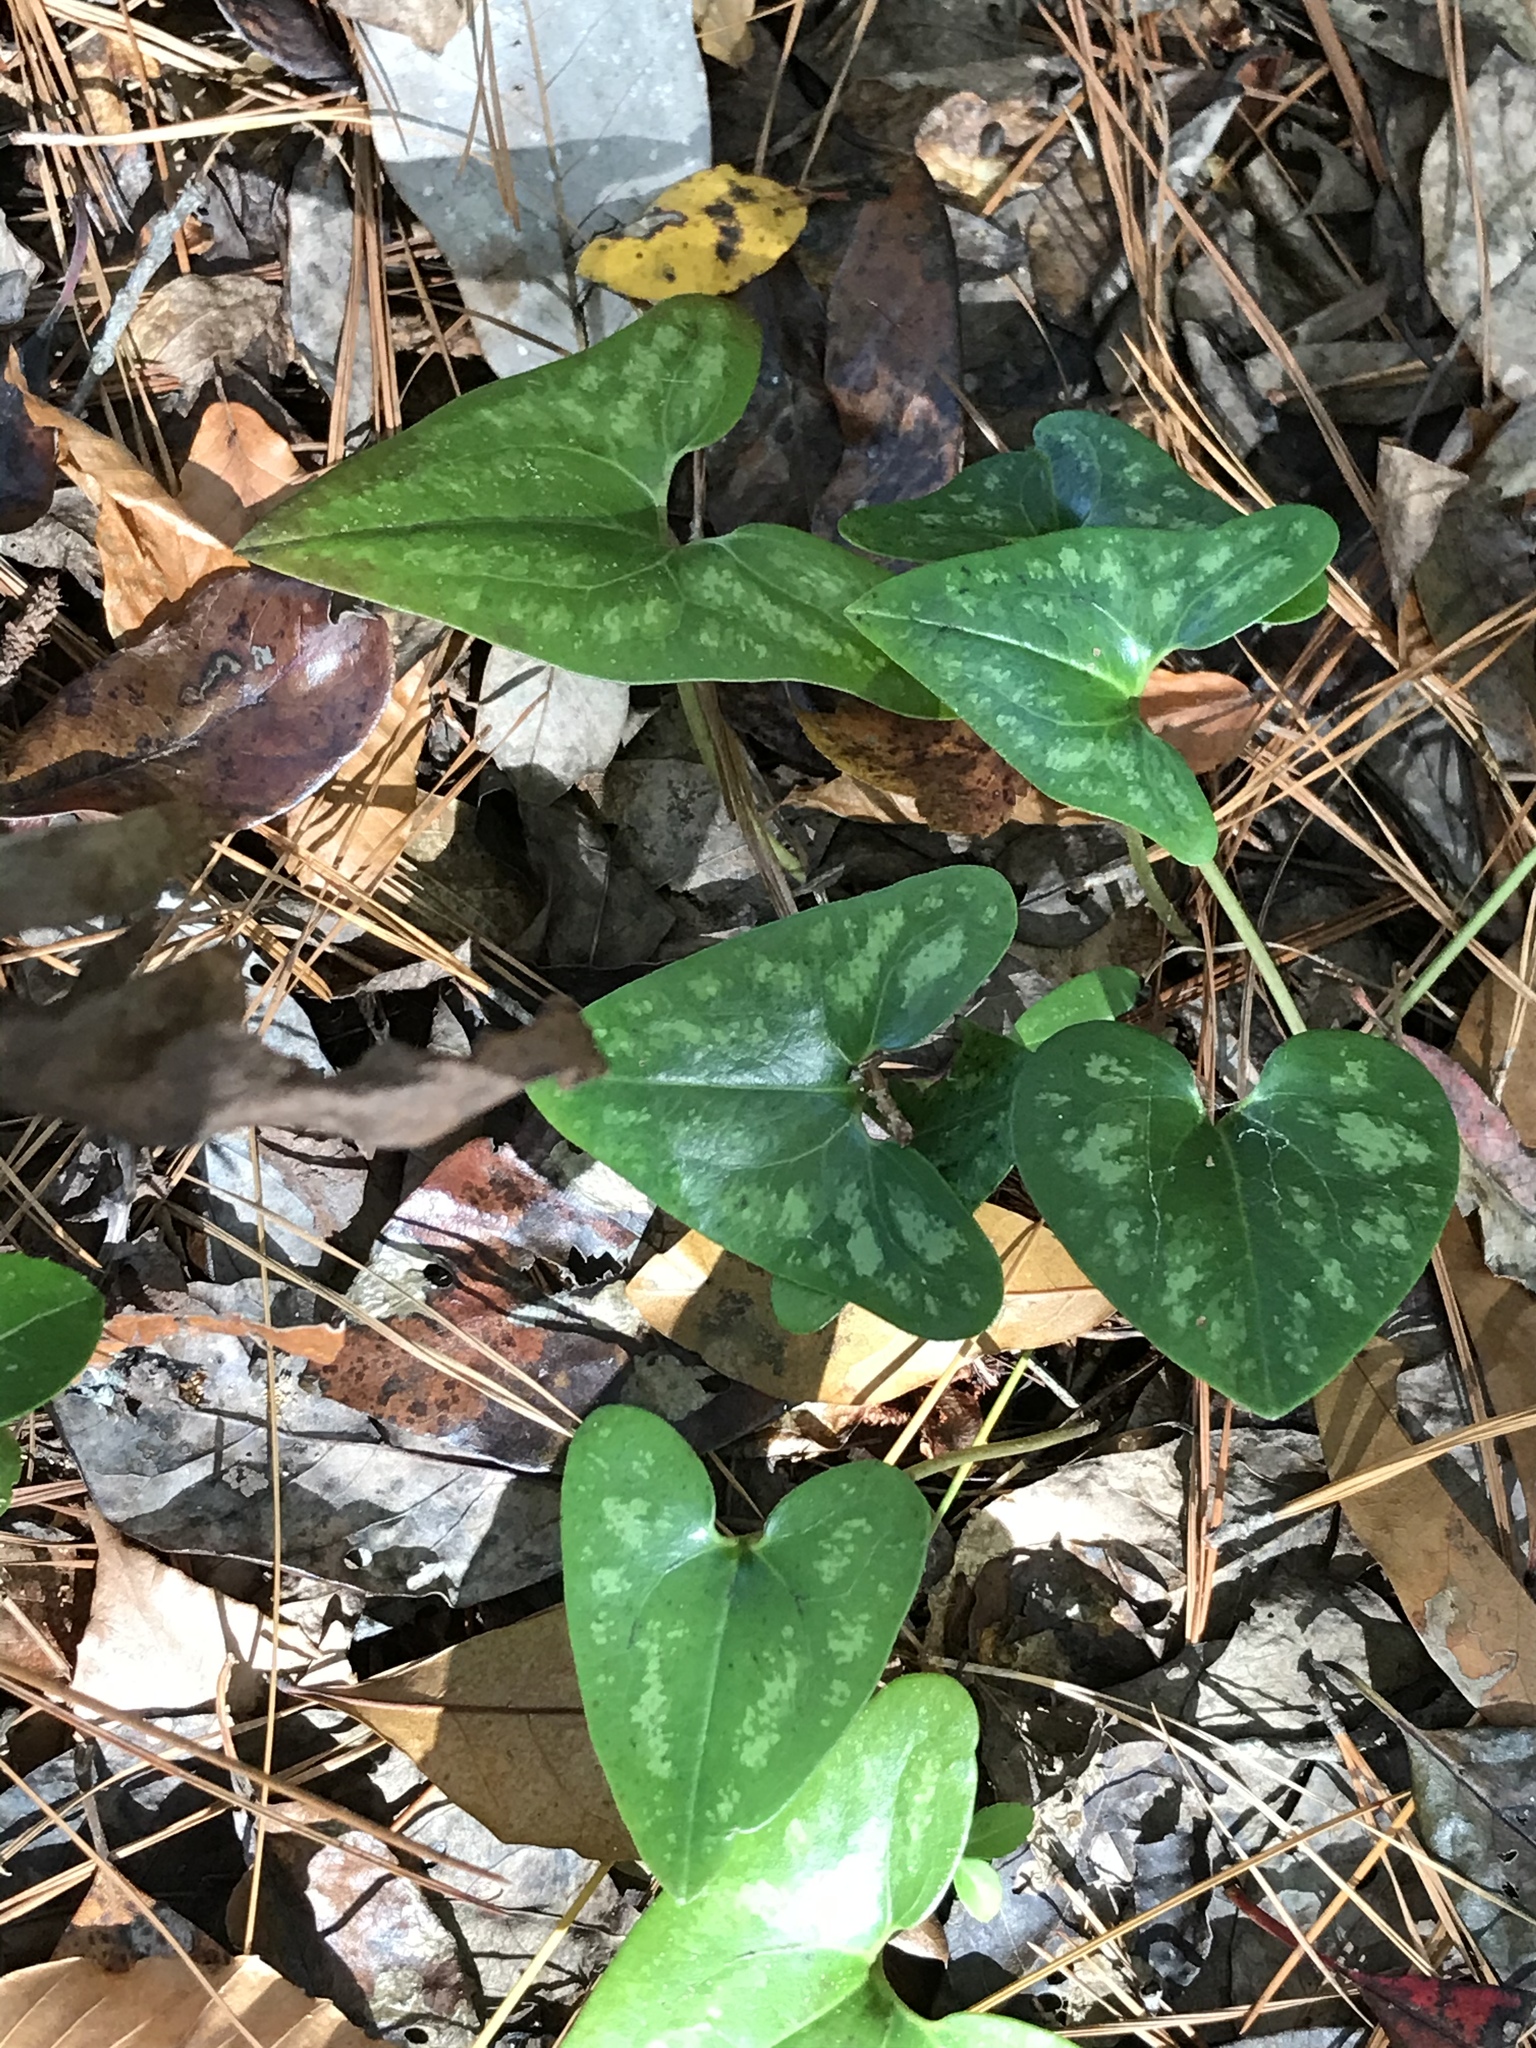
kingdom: Plantae
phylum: Tracheophyta
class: Magnoliopsida
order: Piperales
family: Aristolochiaceae
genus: Hexastylis
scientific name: Hexastylis arifolia
